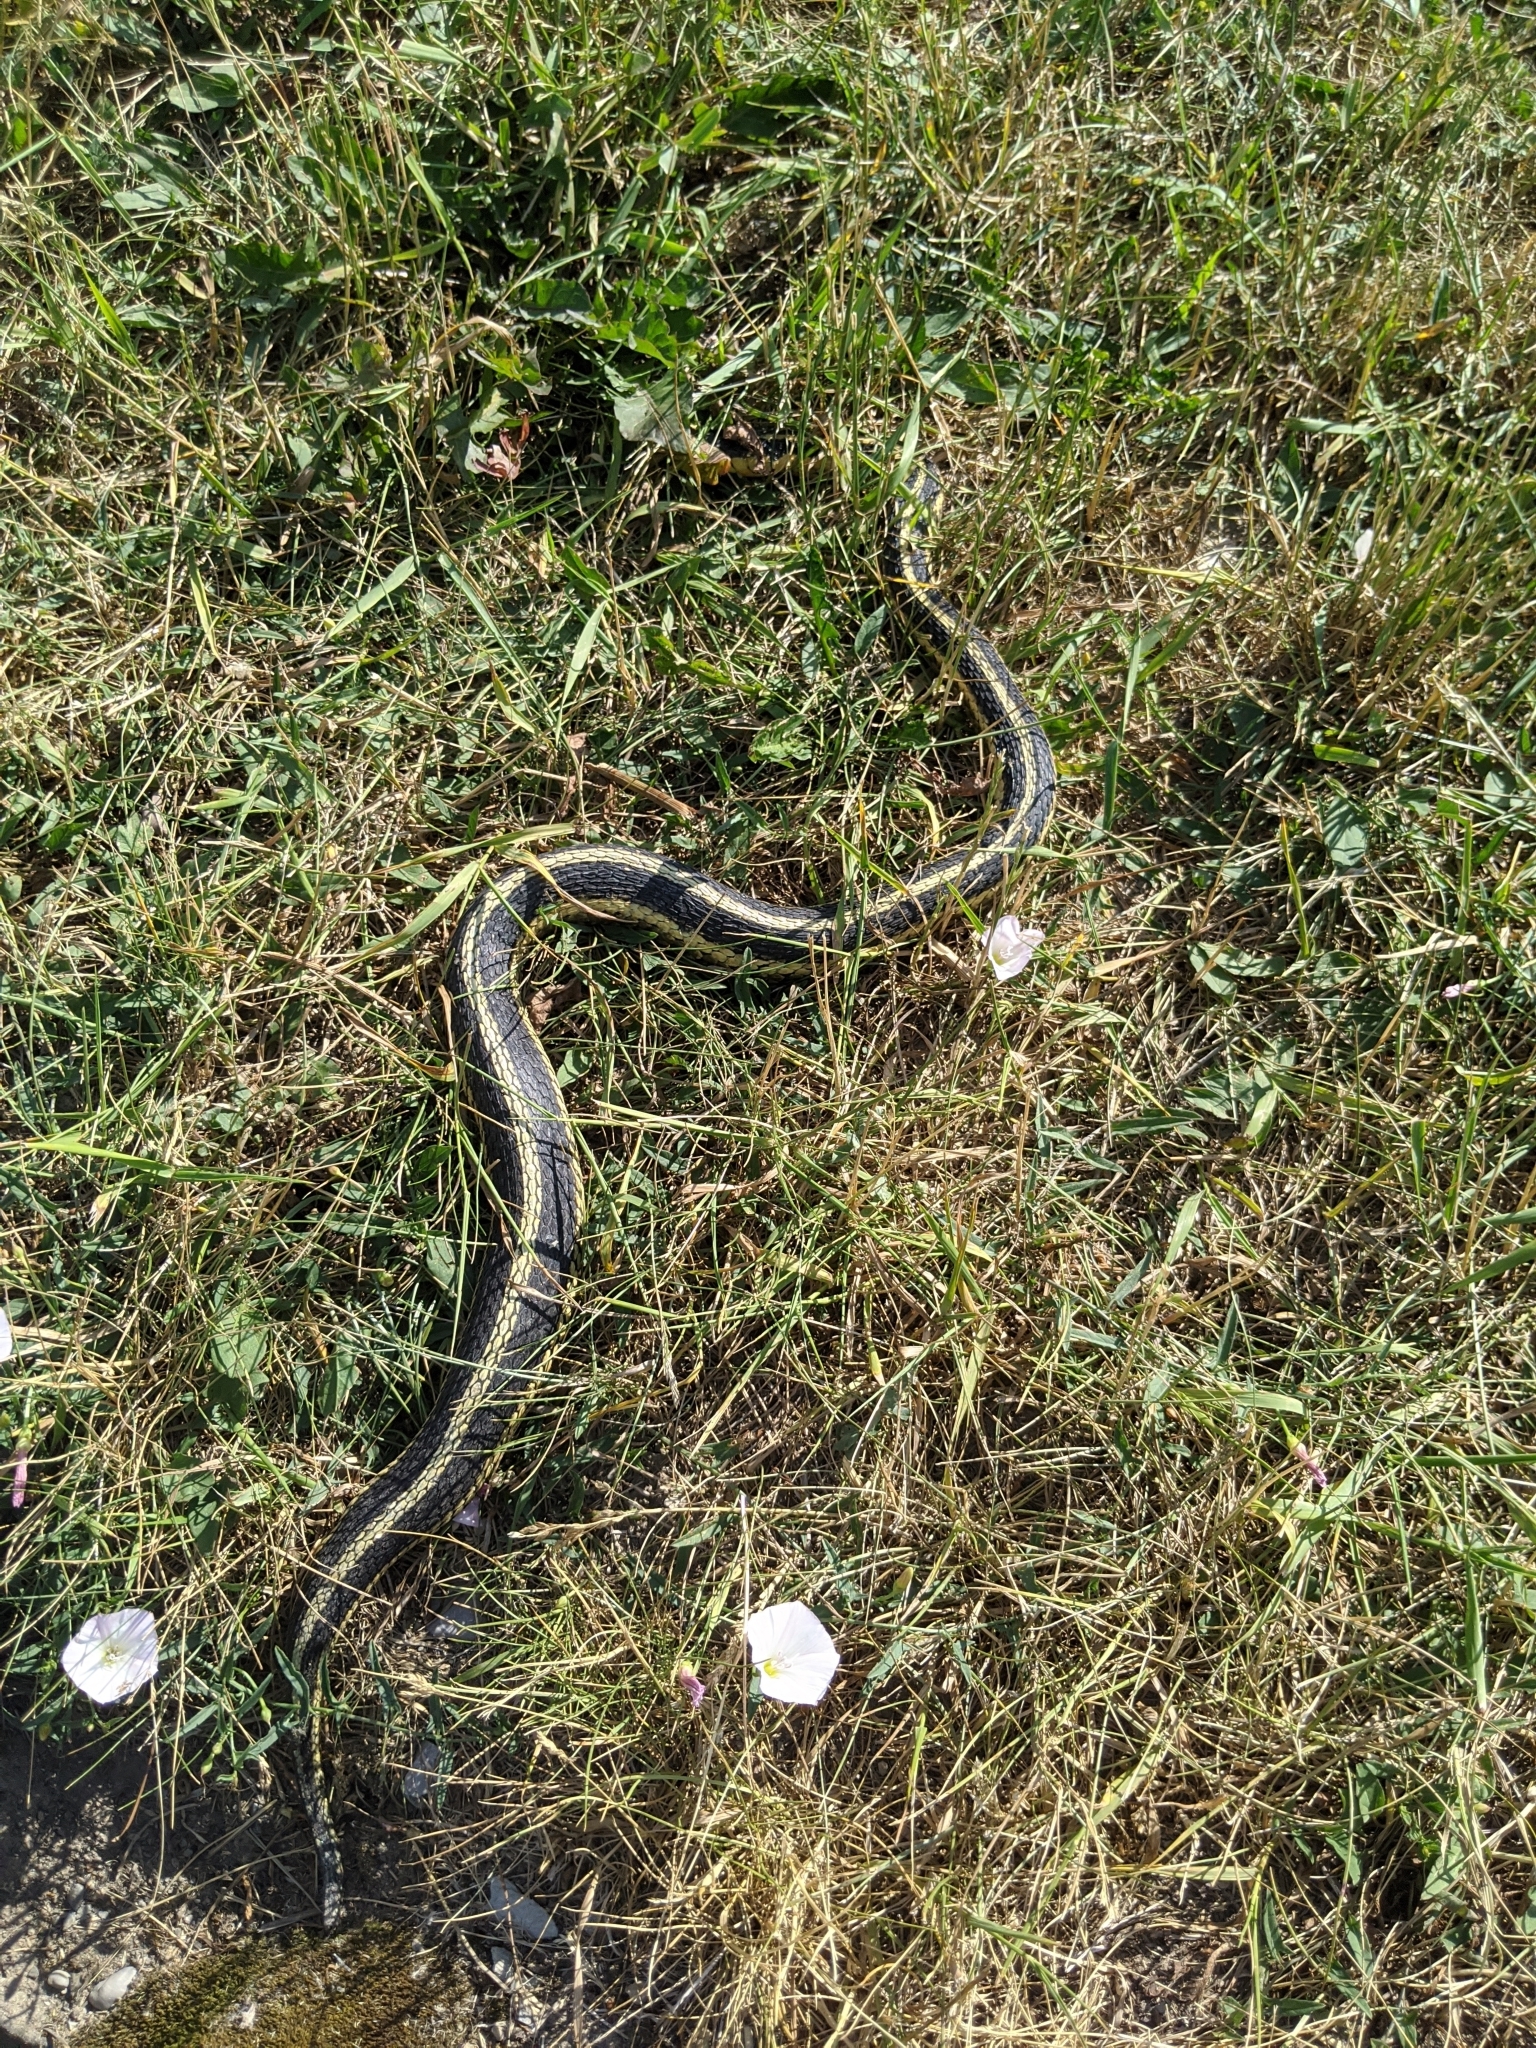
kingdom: Animalia
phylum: Chordata
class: Squamata
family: Colubridae
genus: Thamnophis
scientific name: Thamnophis sirtalis
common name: Common garter snake
